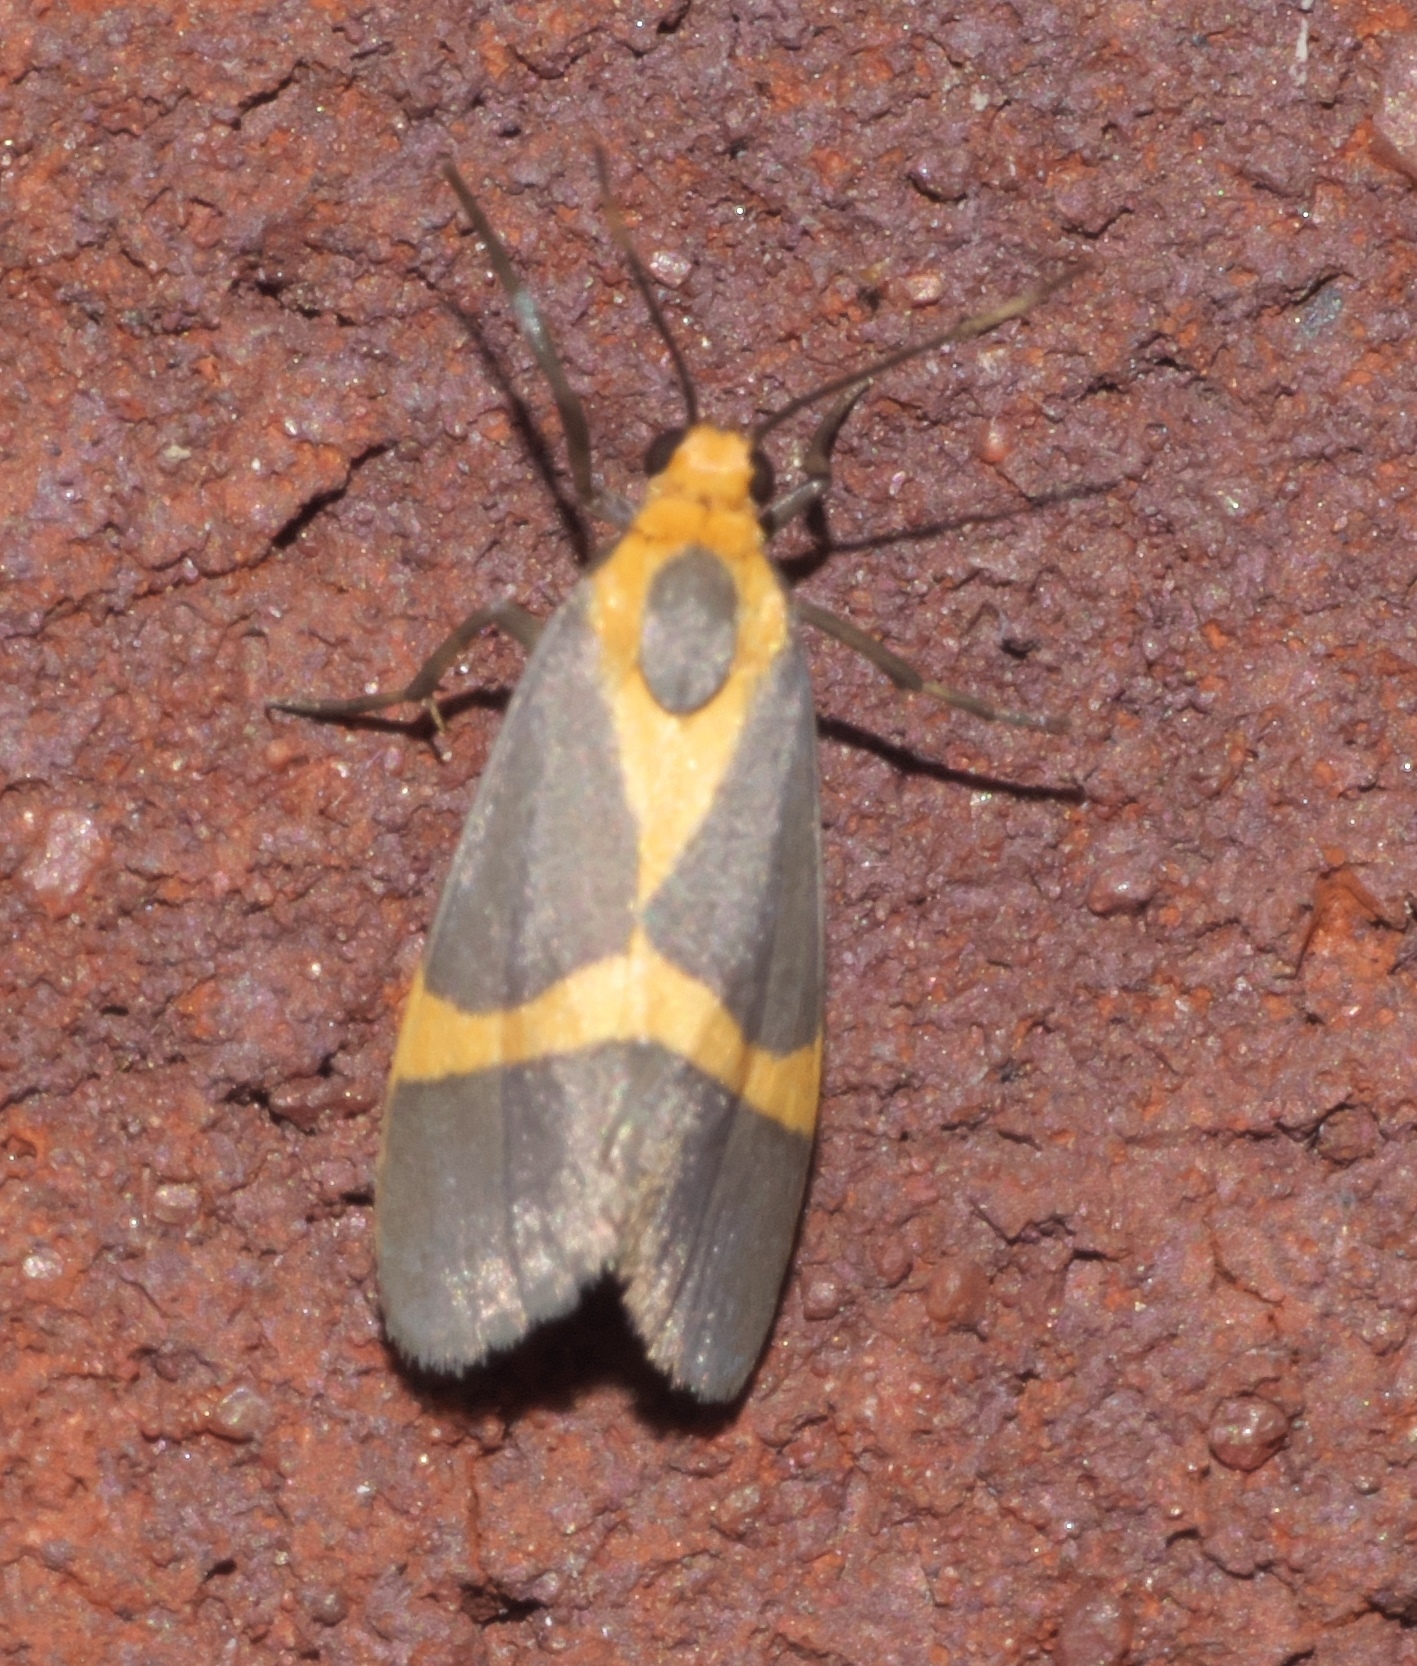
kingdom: Animalia
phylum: Arthropoda
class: Insecta
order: Lepidoptera
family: Erebidae
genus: Cisthene
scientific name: Cisthene tenuifascia
